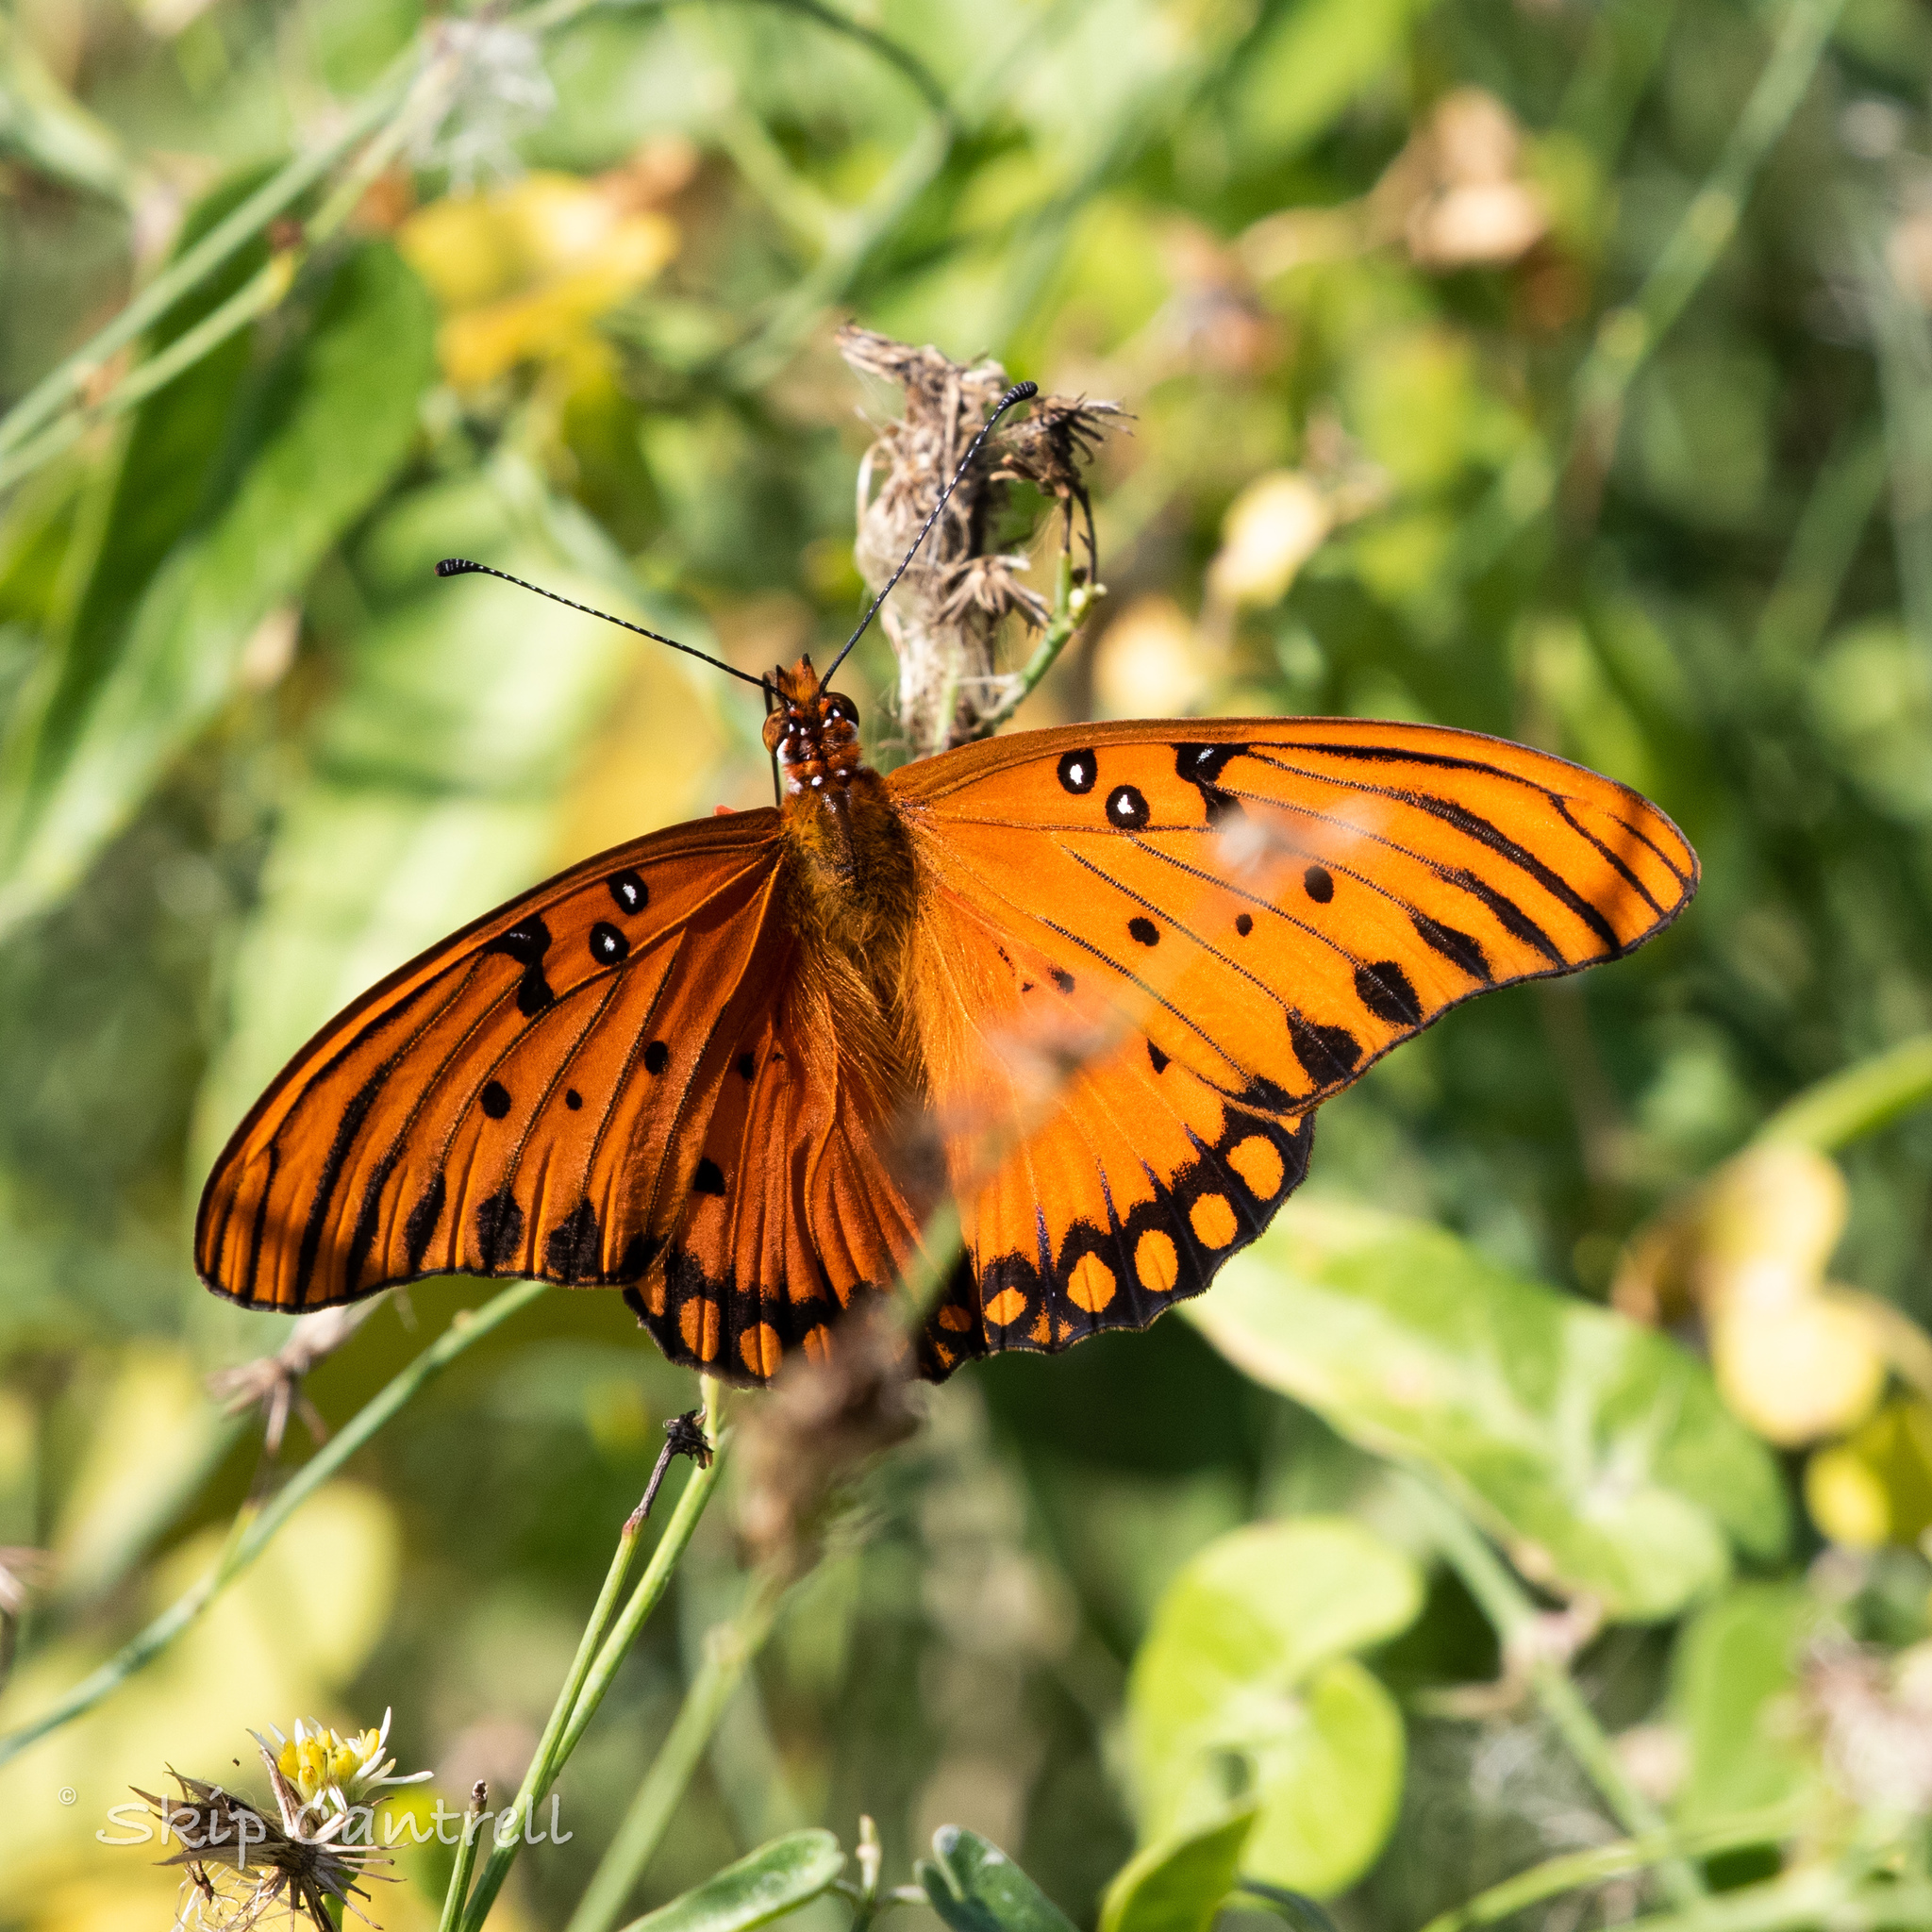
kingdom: Animalia
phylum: Arthropoda
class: Insecta
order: Lepidoptera
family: Nymphalidae
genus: Dione
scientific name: Dione vanillae
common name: Gulf fritillary
